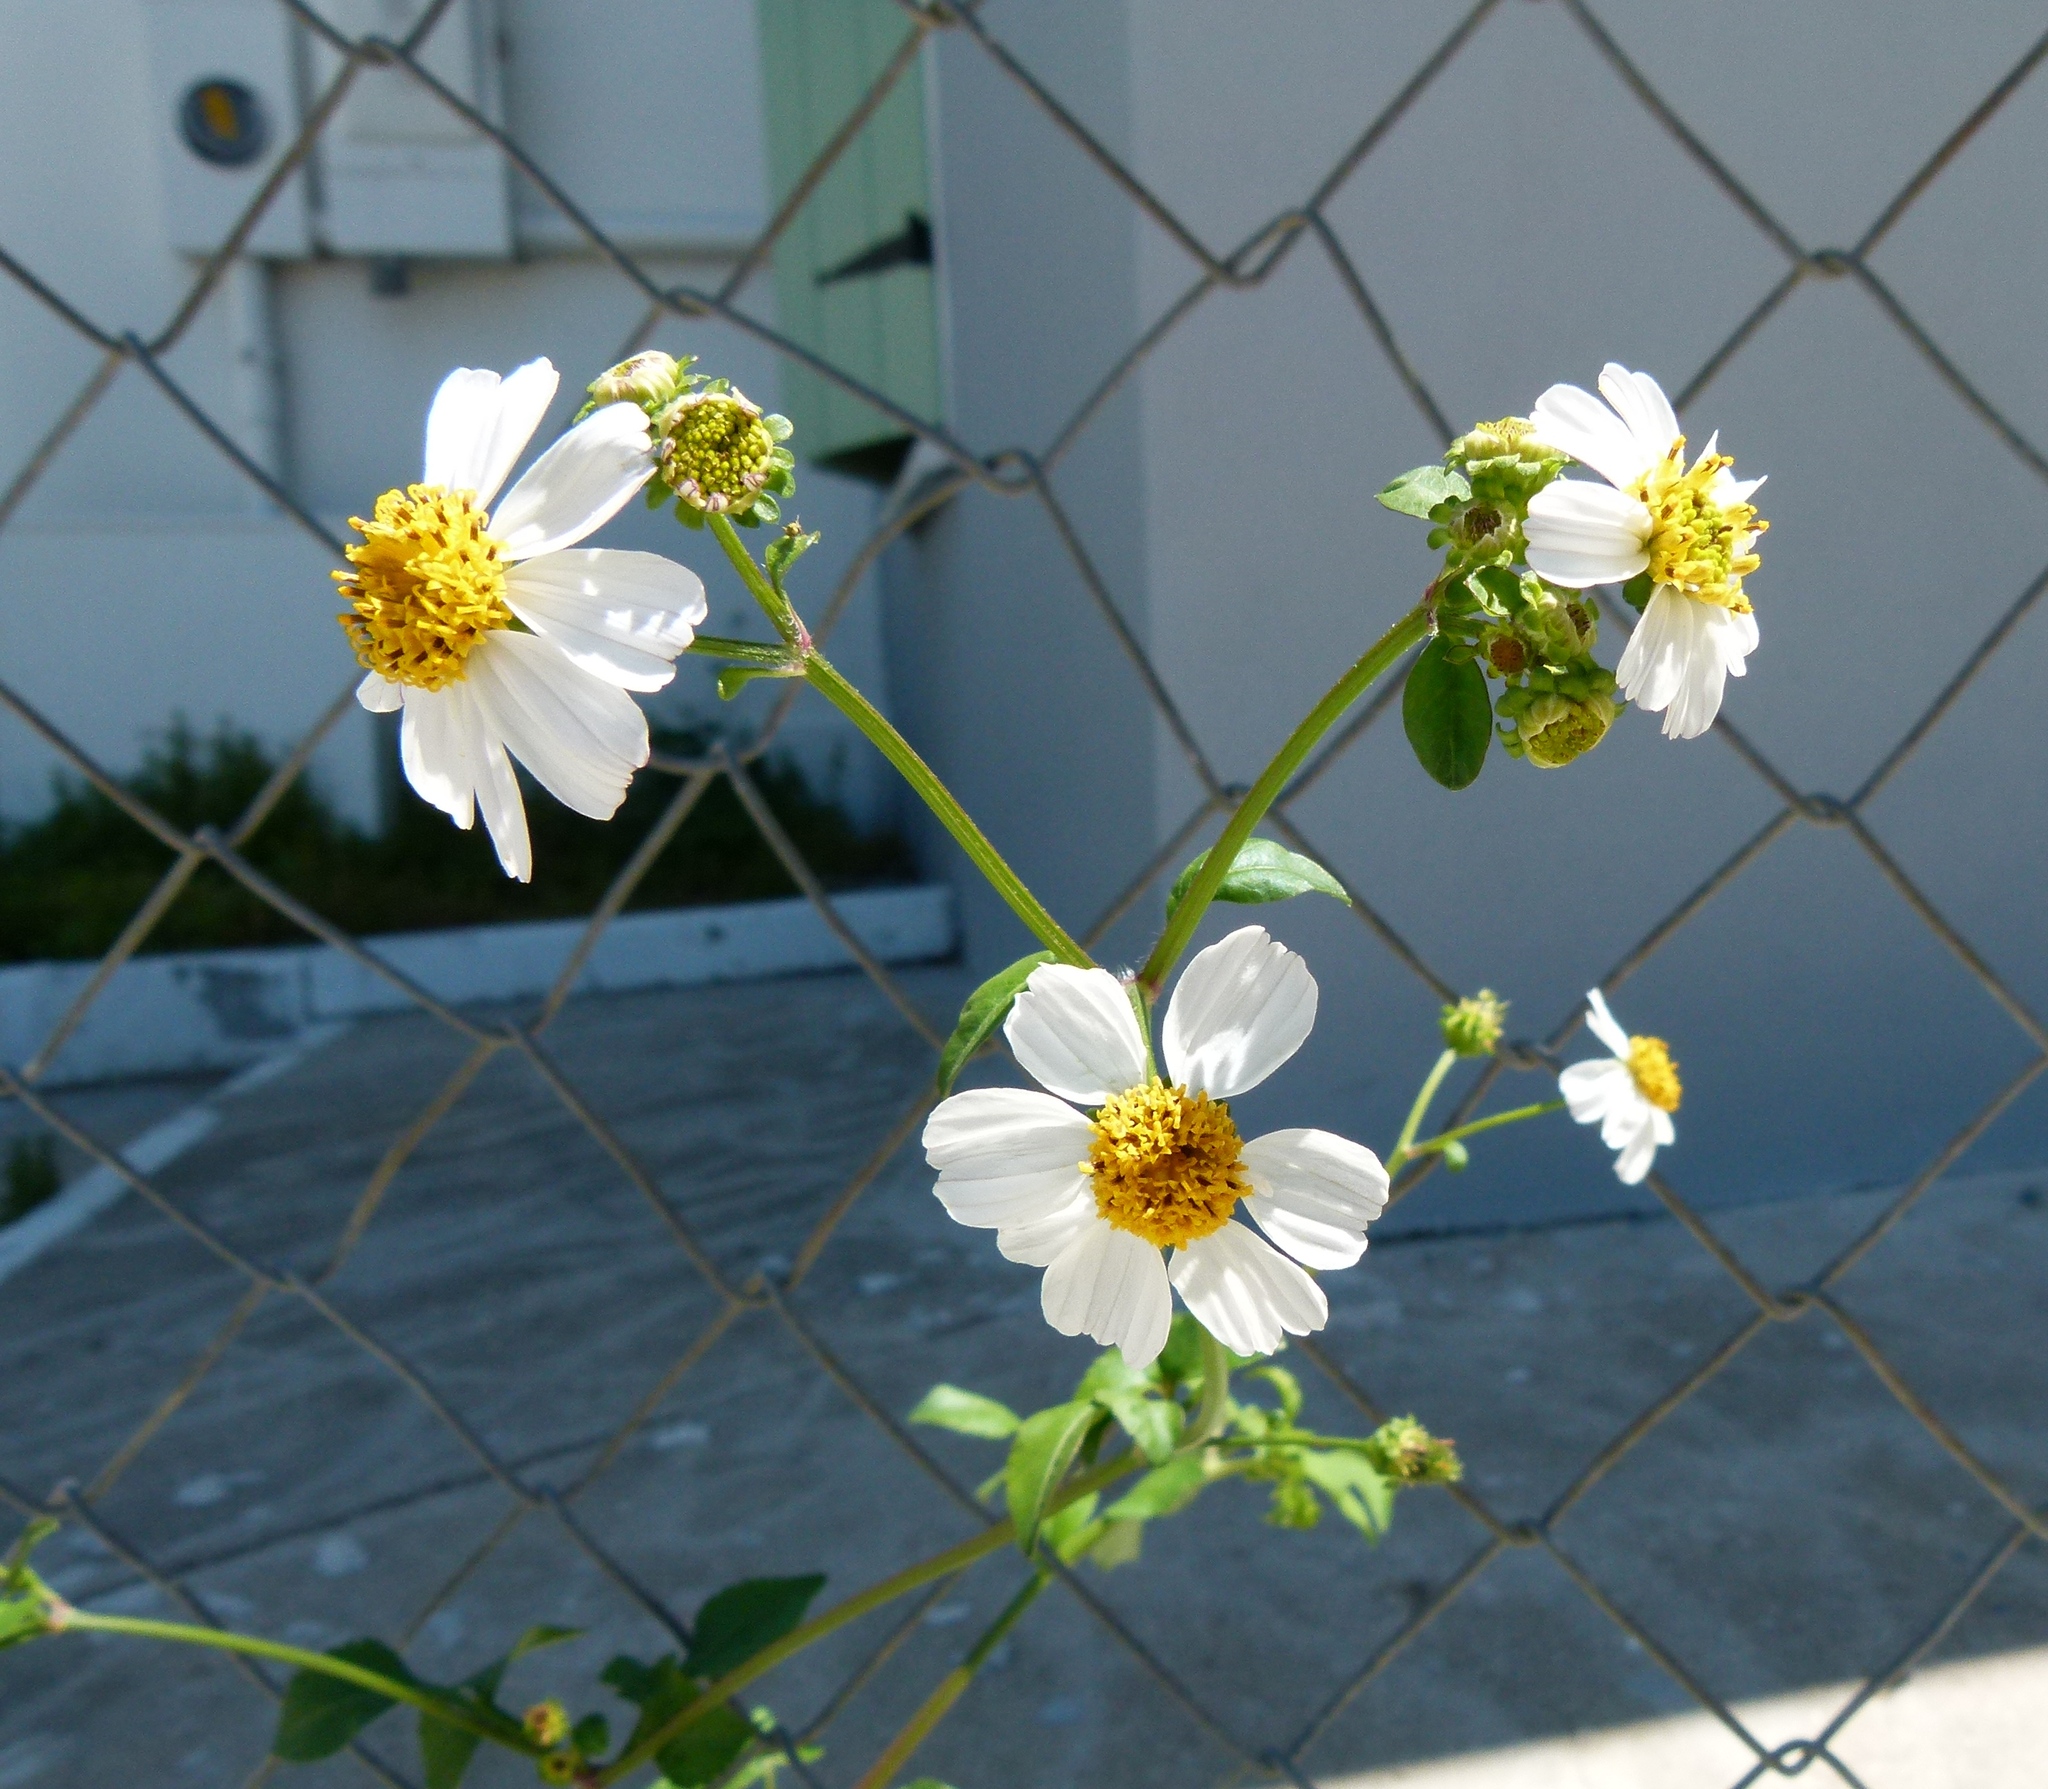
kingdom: Plantae
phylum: Tracheophyta
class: Magnoliopsida
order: Asterales
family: Asteraceae
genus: Bidens
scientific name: Bidens alba
